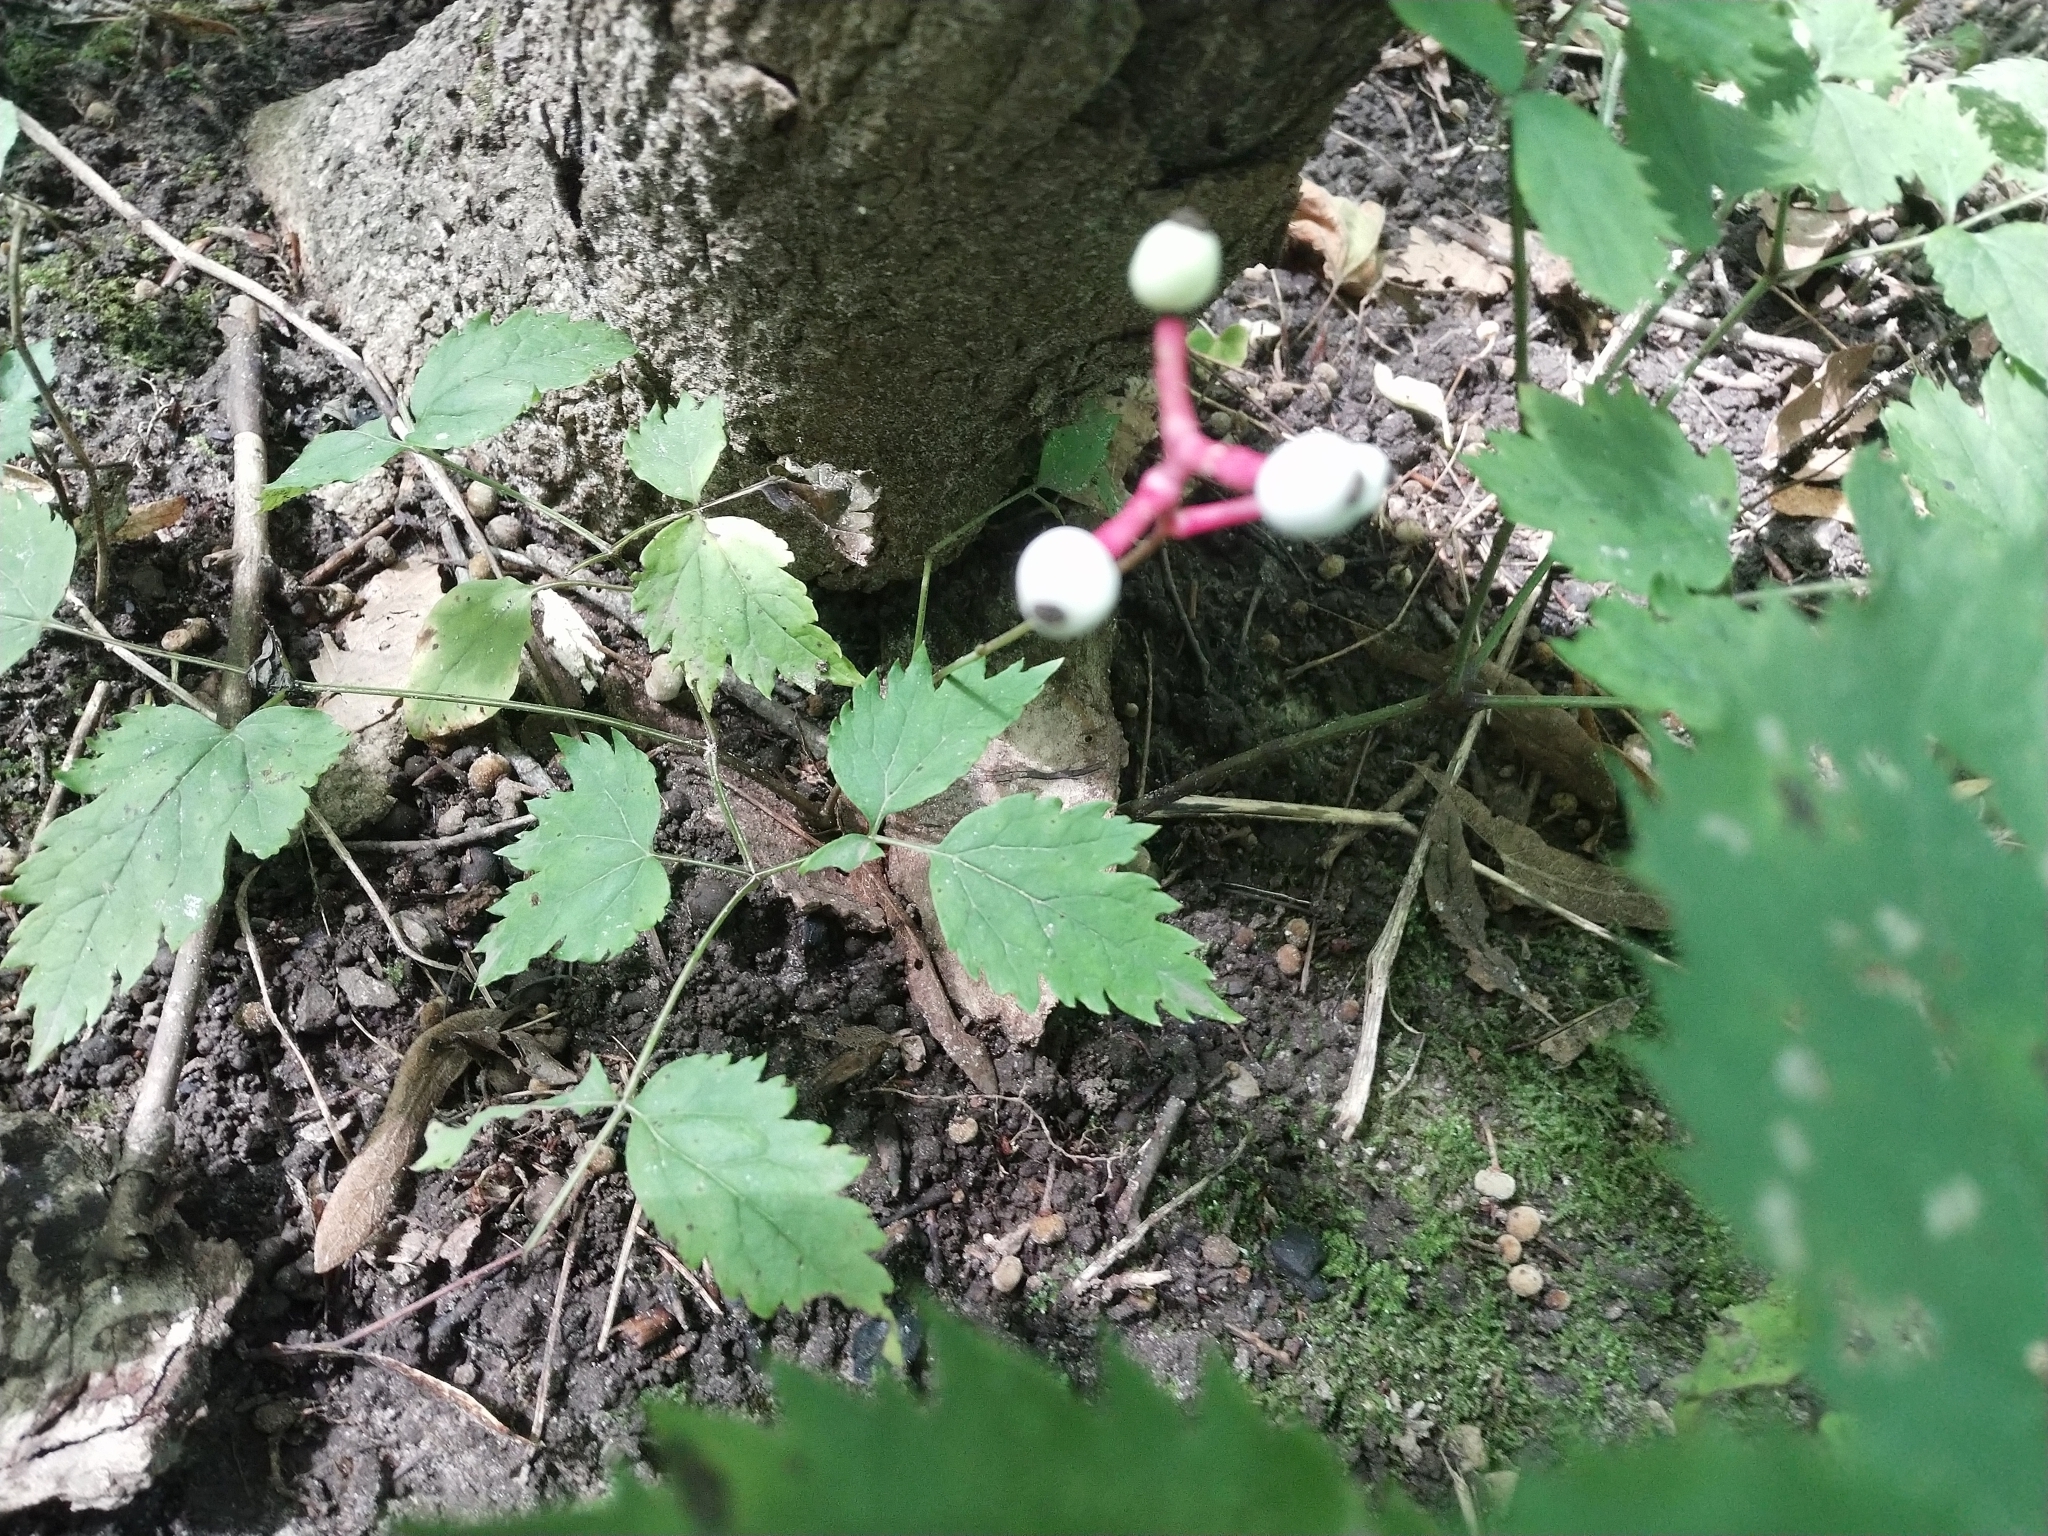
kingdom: Plantae
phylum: Tracheophyta
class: Magnoliopsida
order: Ranunculales
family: Ranunculaceae
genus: Actaea
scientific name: Actaea pachypoda
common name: Doll's-eyes
